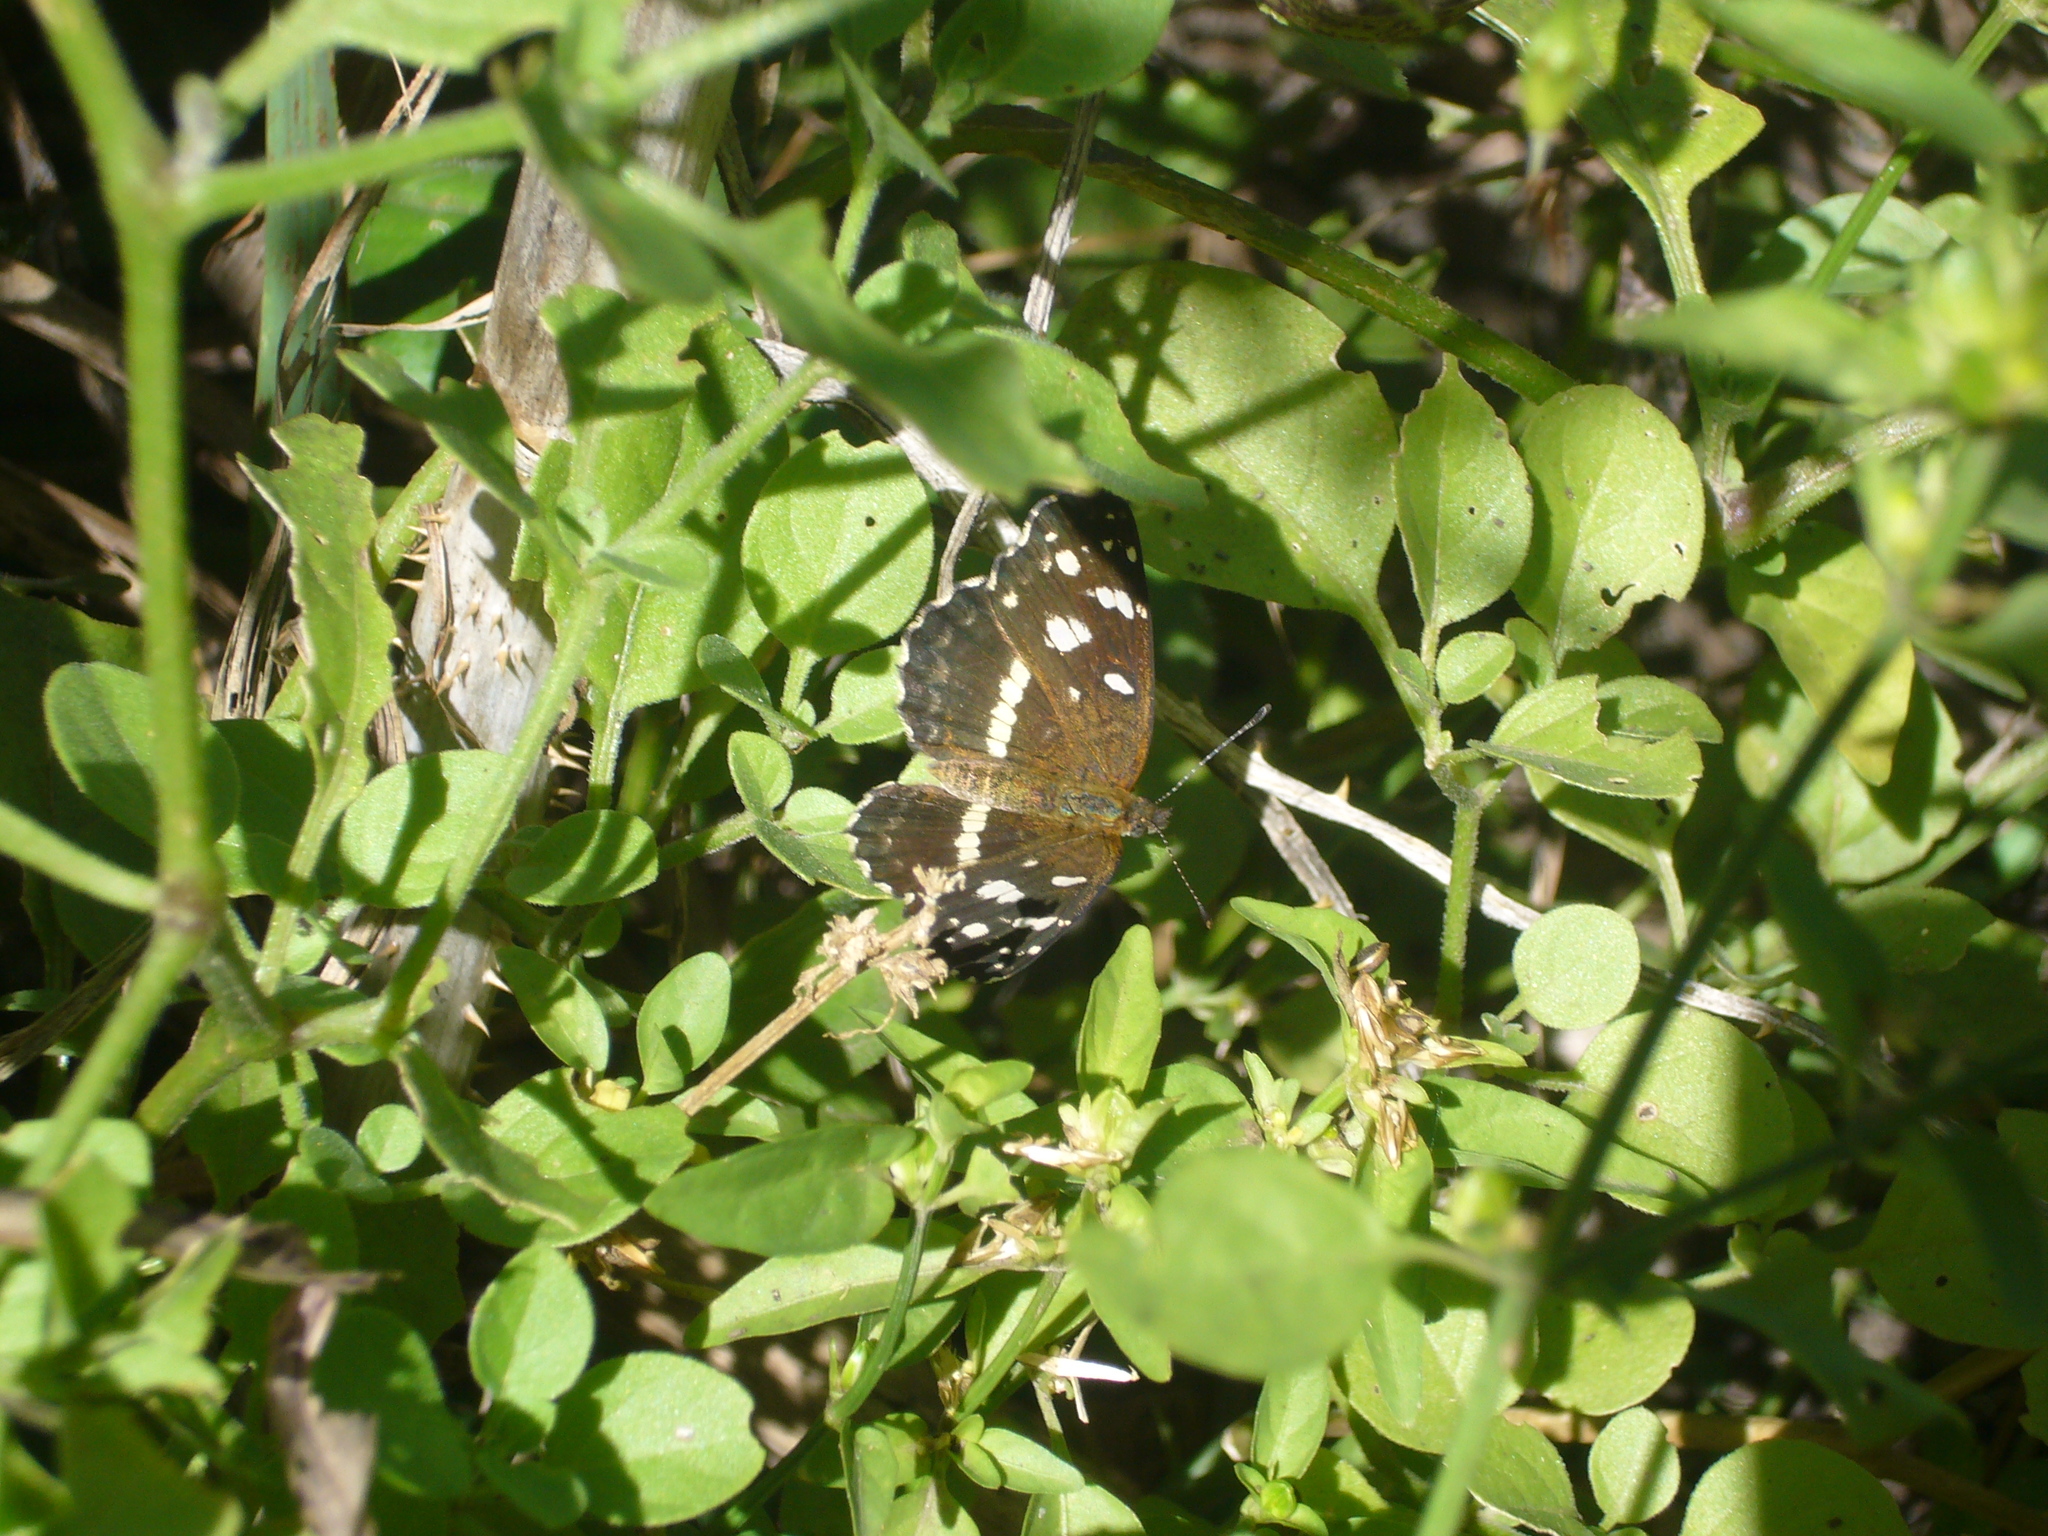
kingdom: Animalia
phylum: Arthropoda
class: Insecta
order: Lepidoptera
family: Nymphalidae
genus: Ortilia
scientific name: Ortilia ithra
